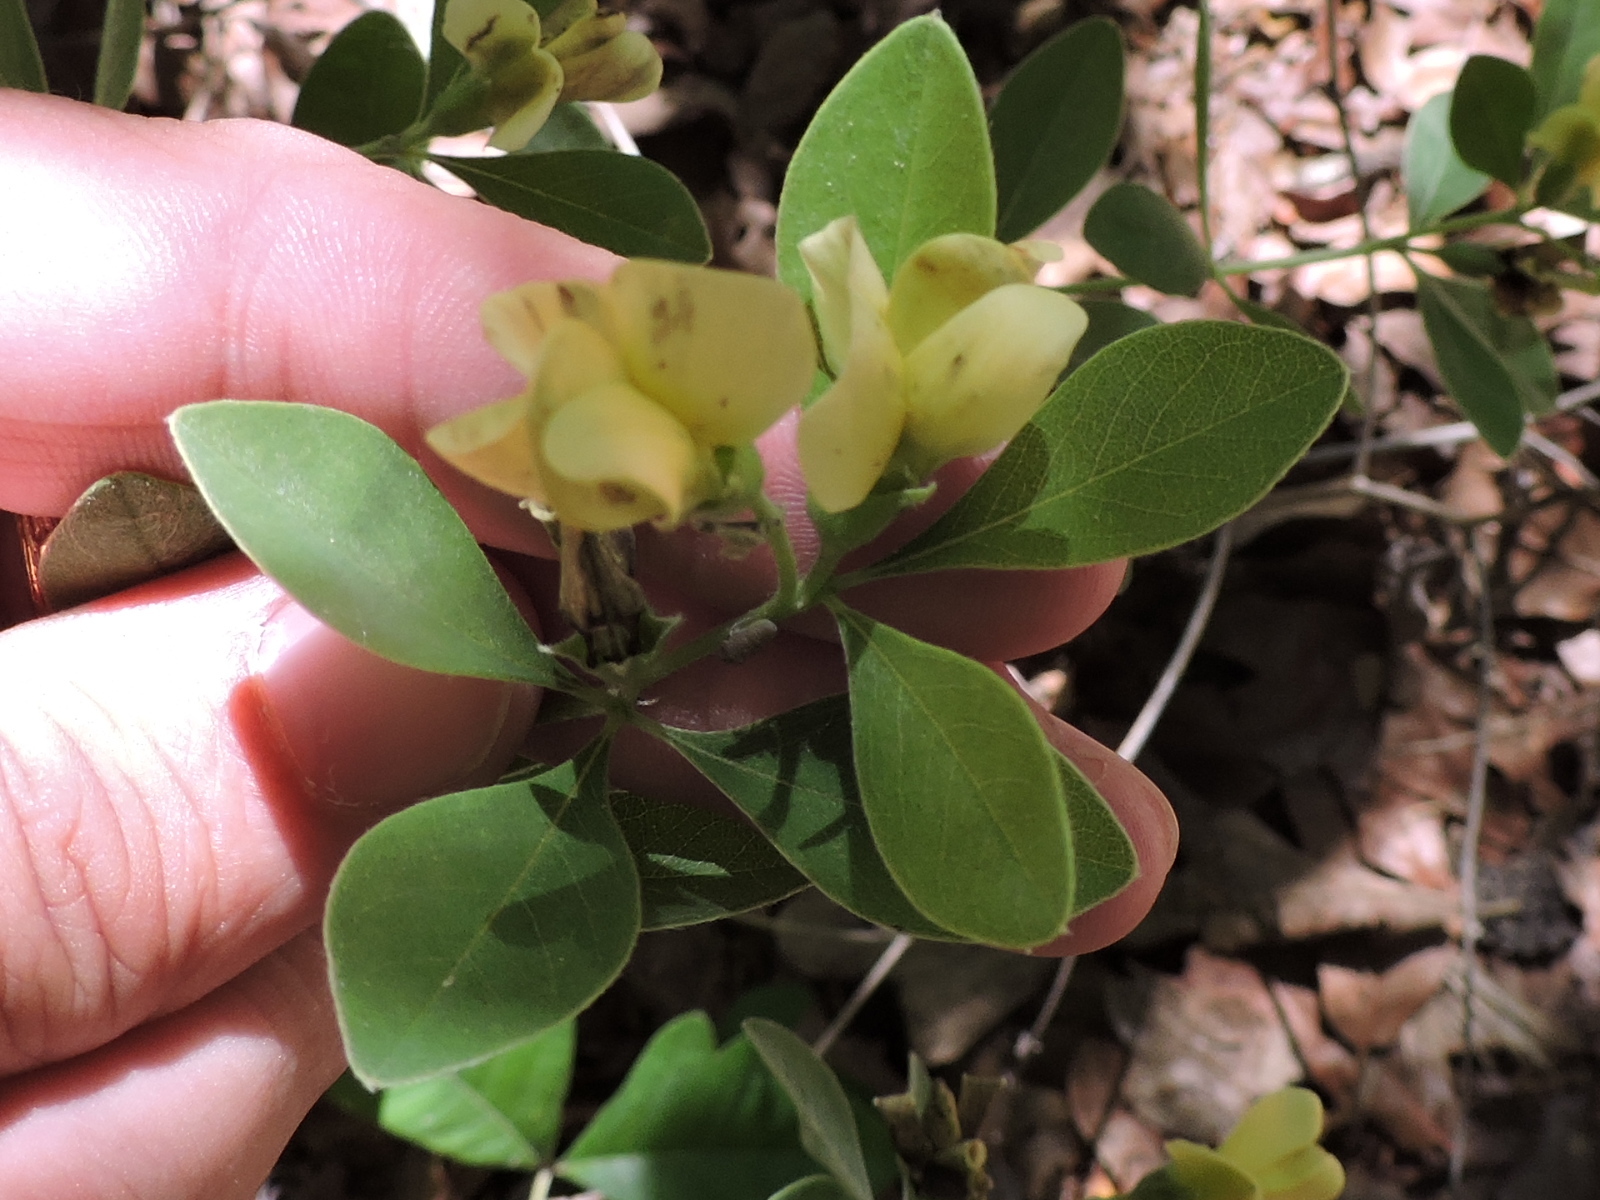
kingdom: Plantae
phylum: Tracheophyta
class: Magnoliopsida
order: Fabales
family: Fabaceae
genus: Baptisia
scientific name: Baptisia nuttalliana
